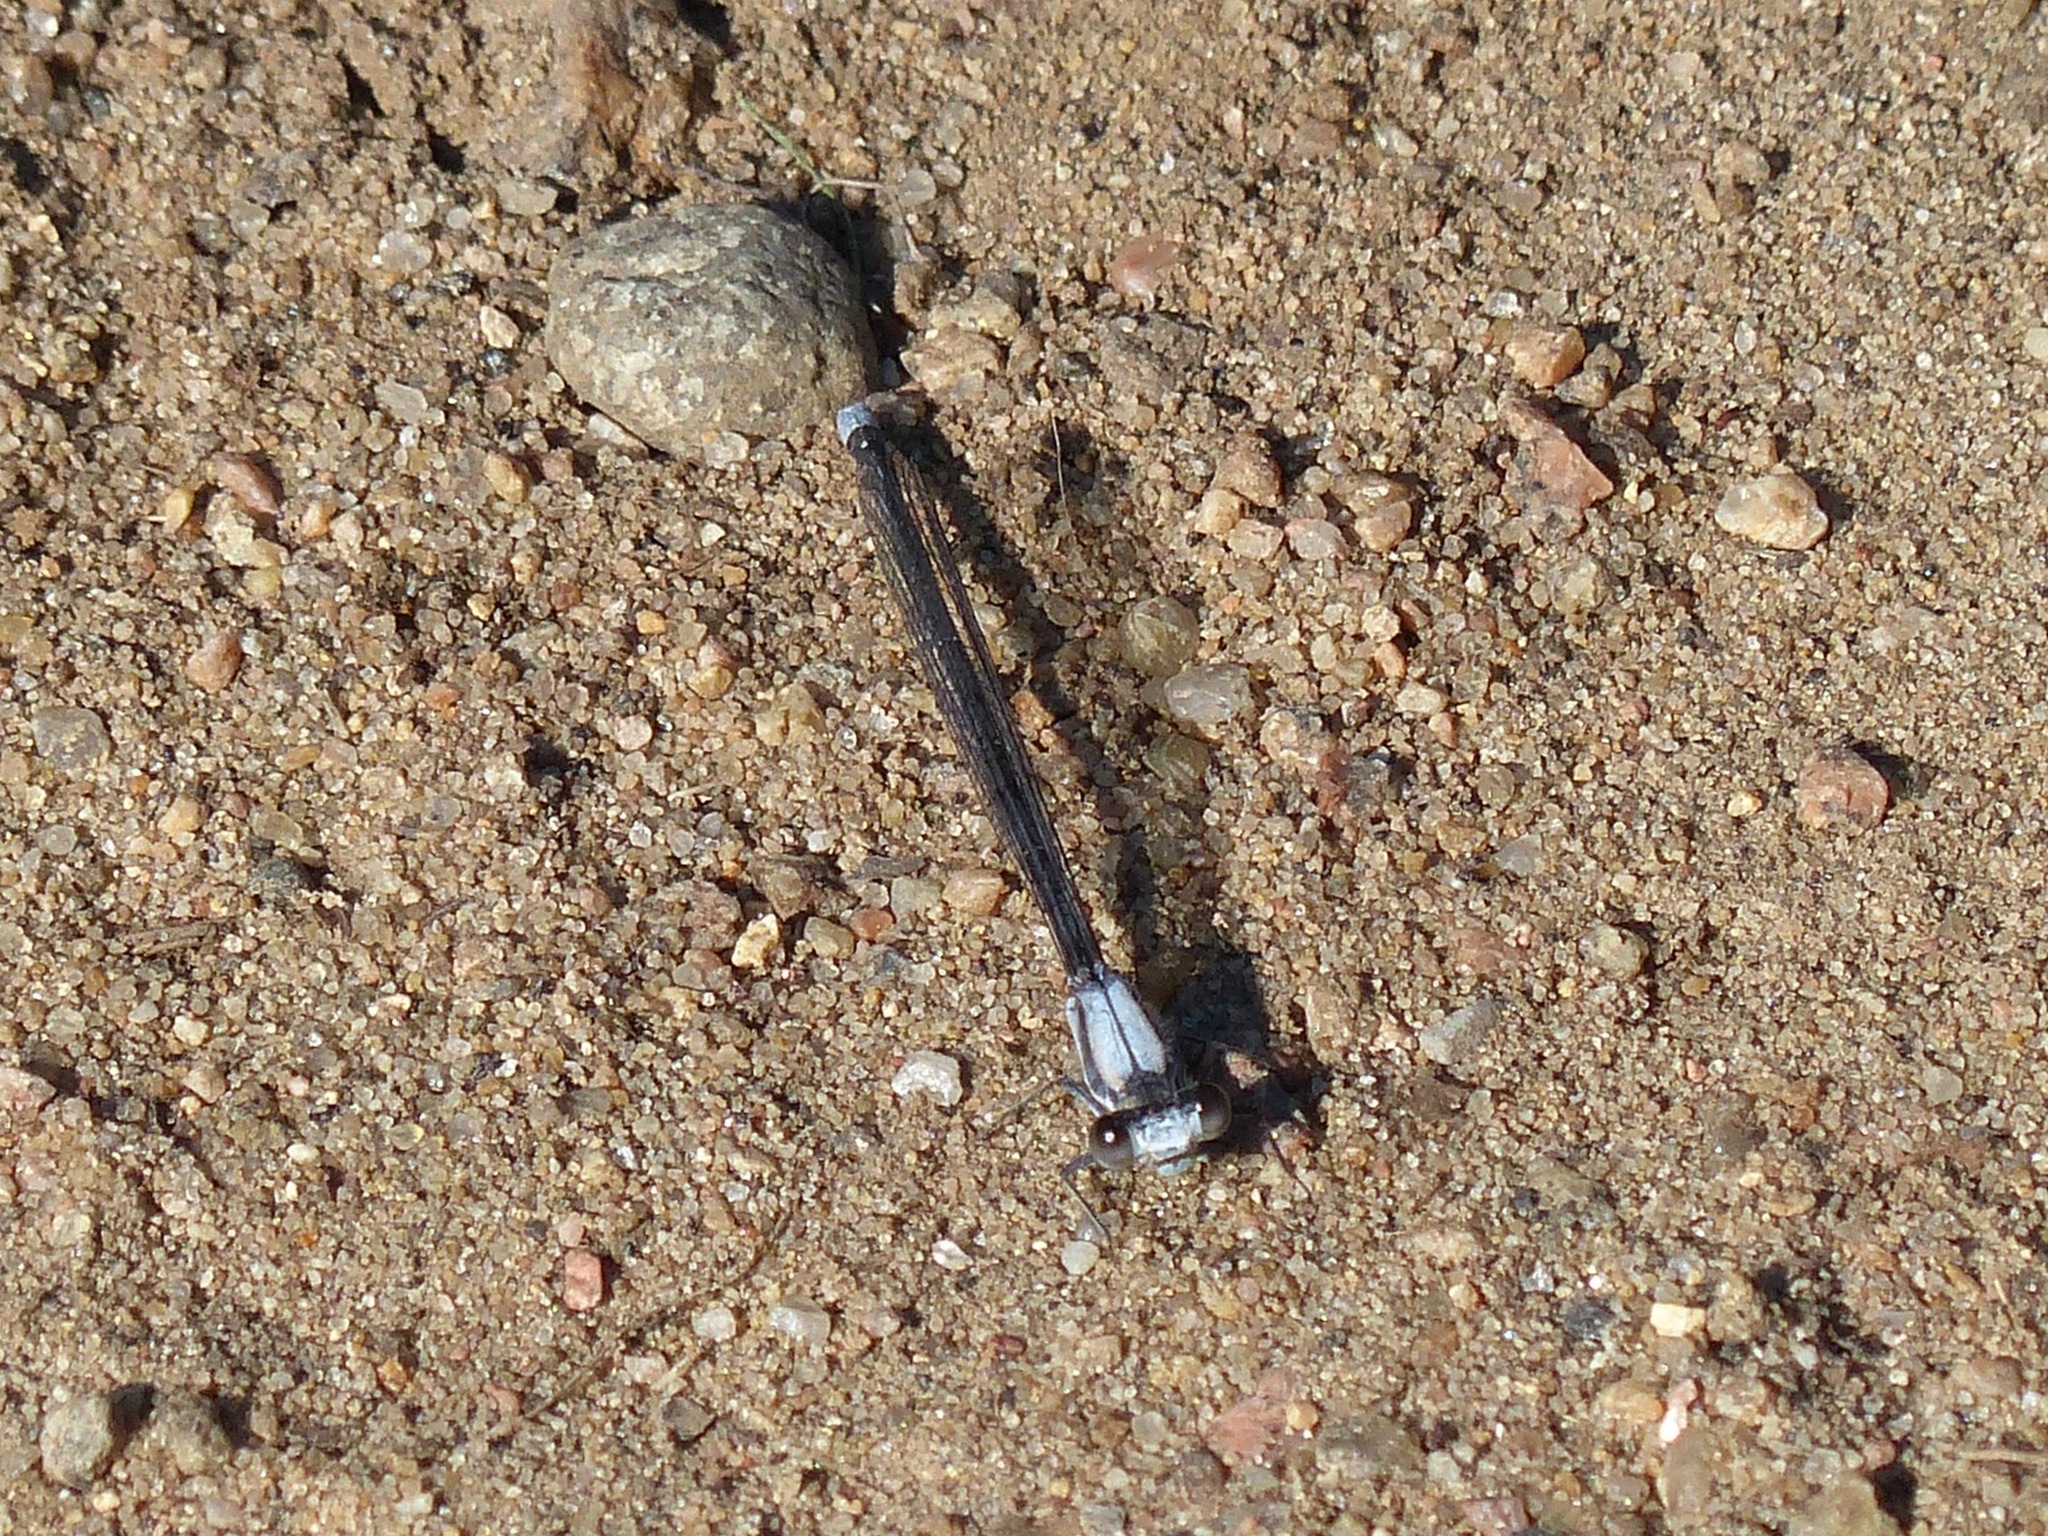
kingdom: Animalia
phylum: Arthropoda
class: Insecta
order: Odonata
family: Coenagrionidae
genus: Argia
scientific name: Argia moesta
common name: Powdered dancer
